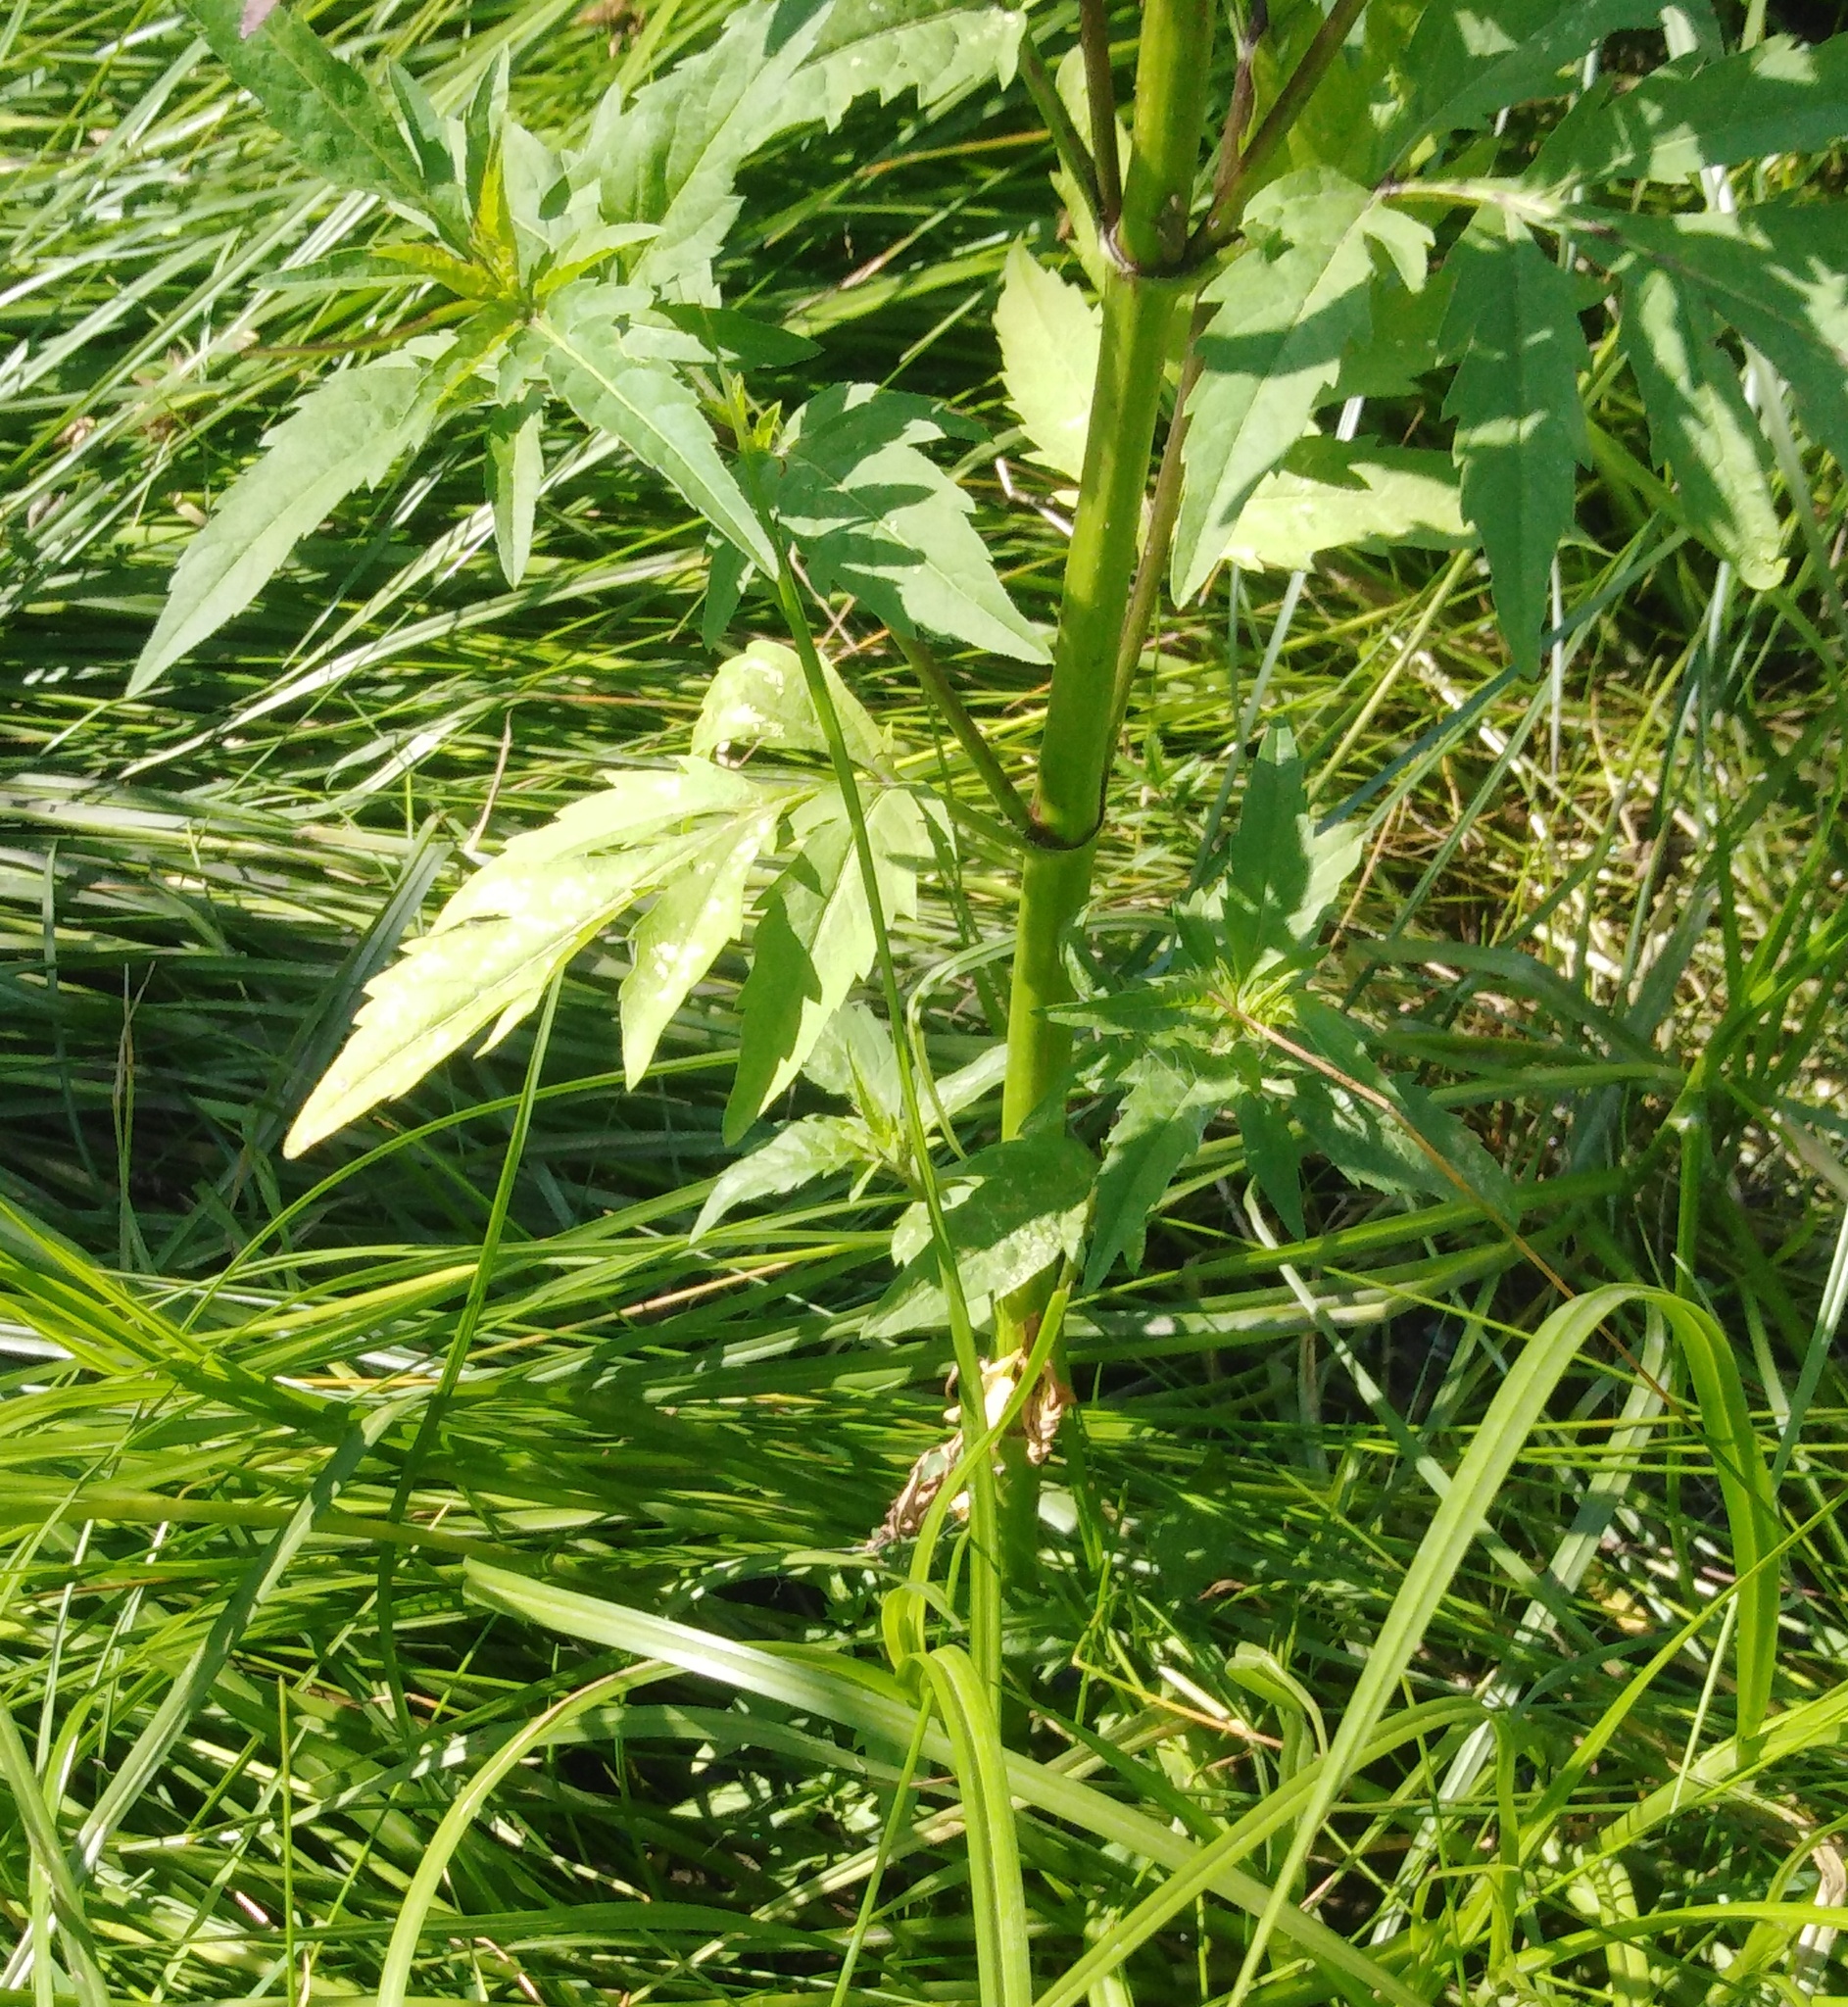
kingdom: Plantae
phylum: Tracheophyta
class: Magnoliopsida
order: Asterales
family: Asteraceae
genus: Bidens
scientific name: Bidens tripartita
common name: Trifid bur-marigold
